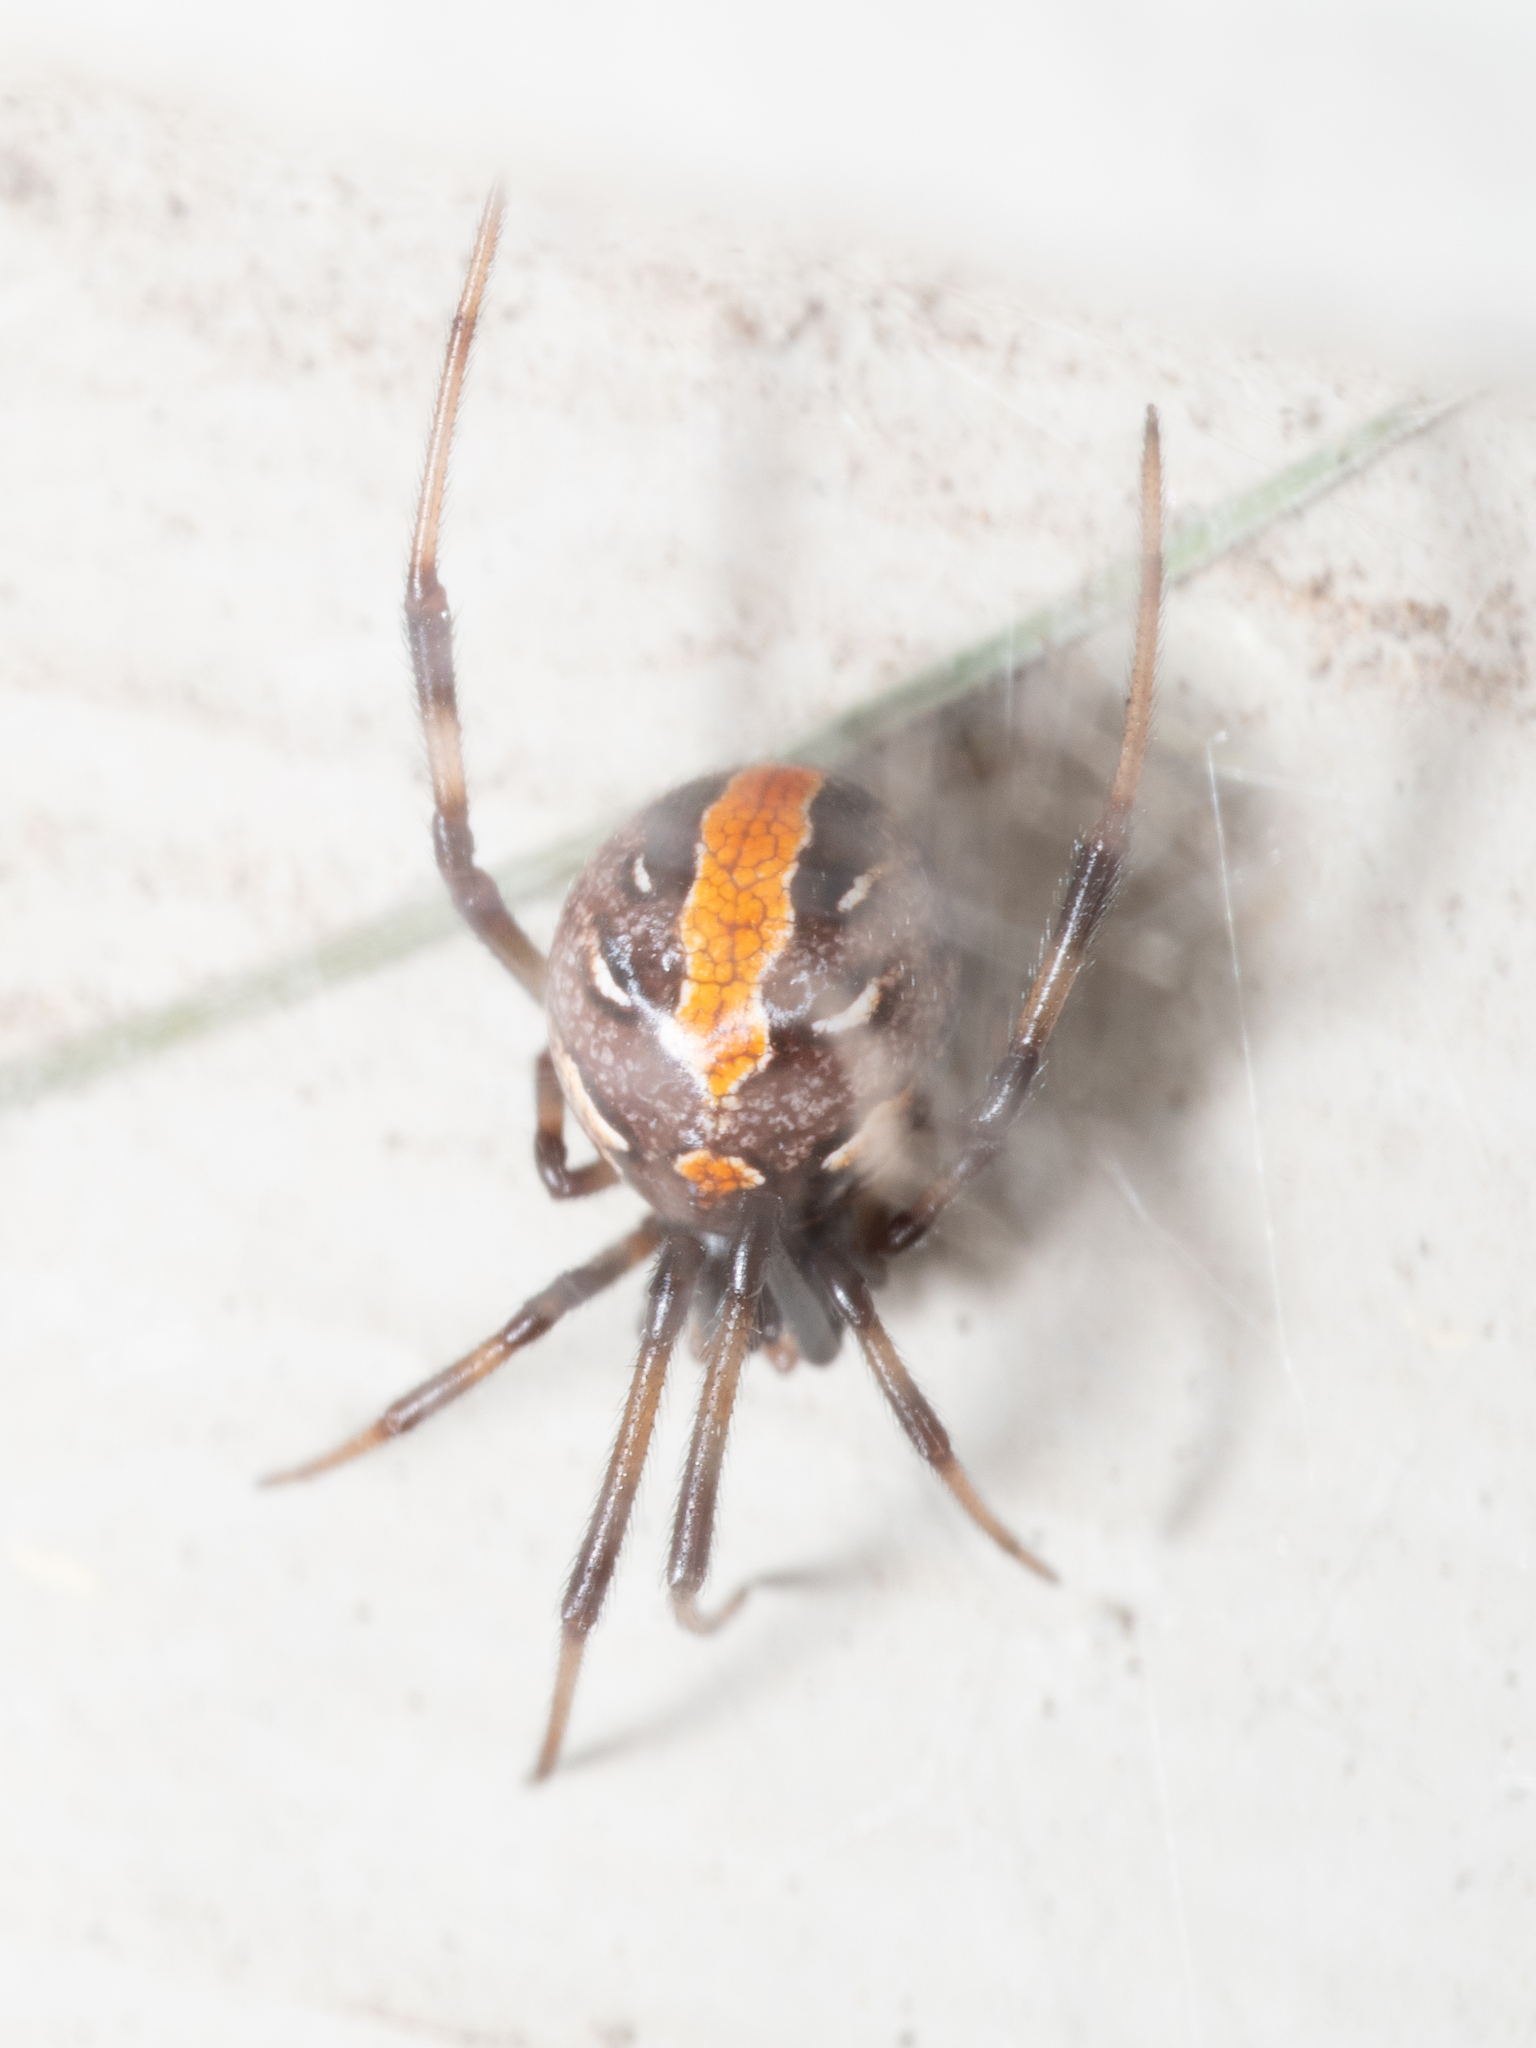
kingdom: Animalia
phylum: Arthropoda
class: Arachnida
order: Araneae
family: Theridiidae
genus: Latrodectus
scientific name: Latrodectus hasselti
